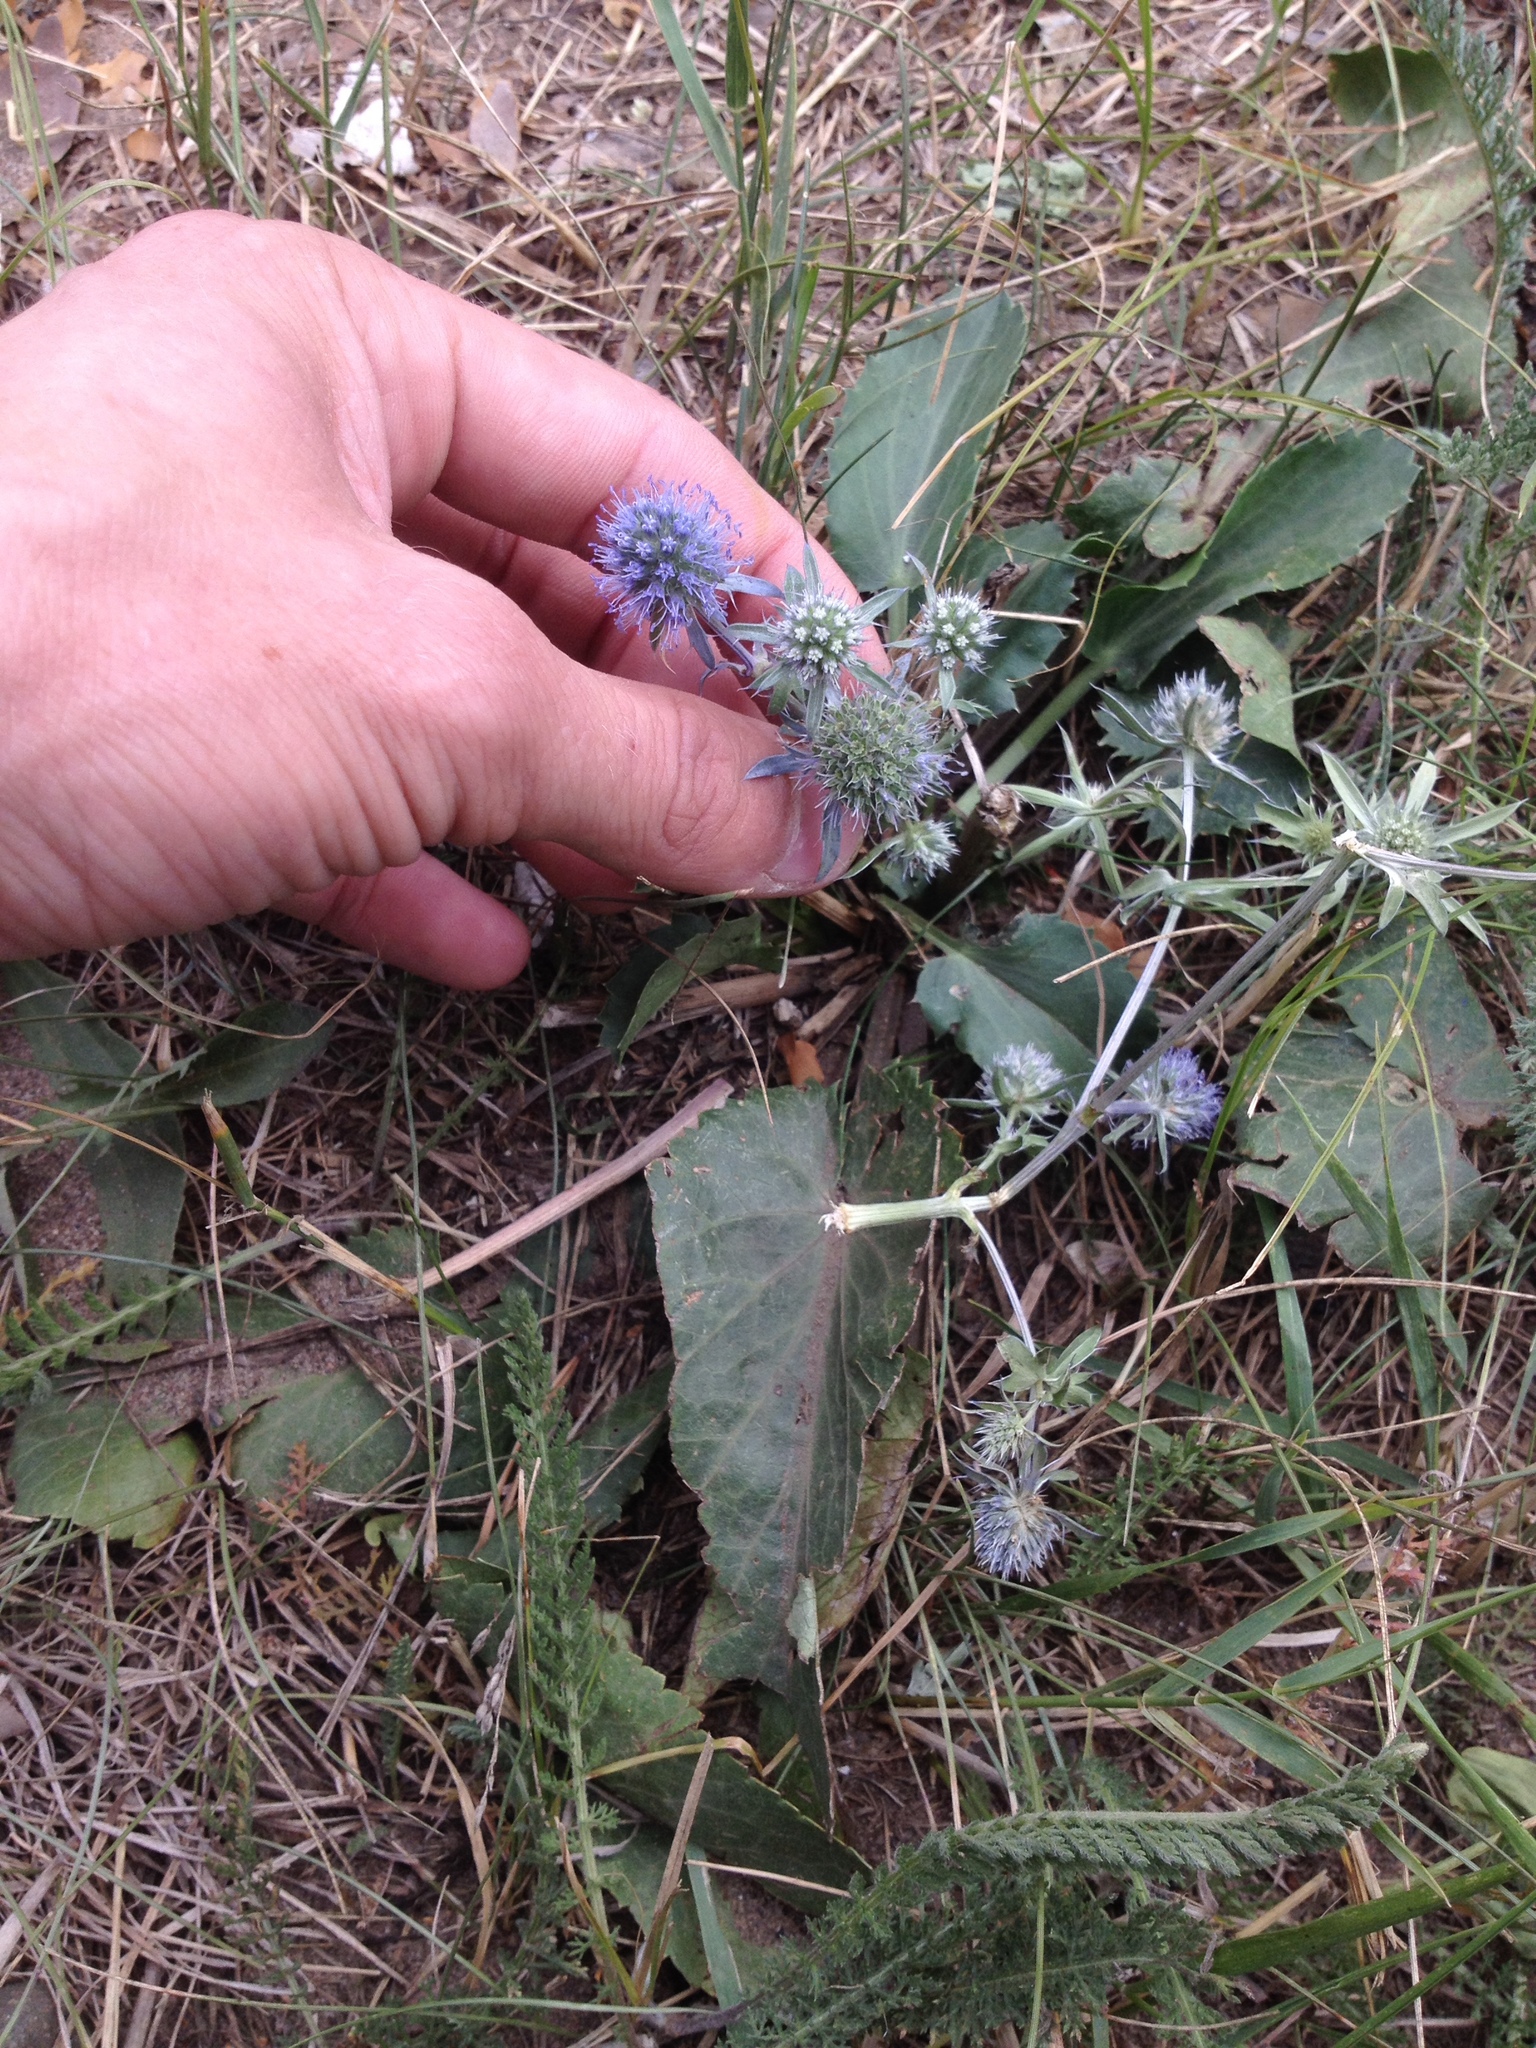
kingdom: Plantae
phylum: Tracheophyta
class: Magnoliopsida
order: Apiales
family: Apiaceae
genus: Eryngium
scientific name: Eryngium planum
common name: Blue eryngo
